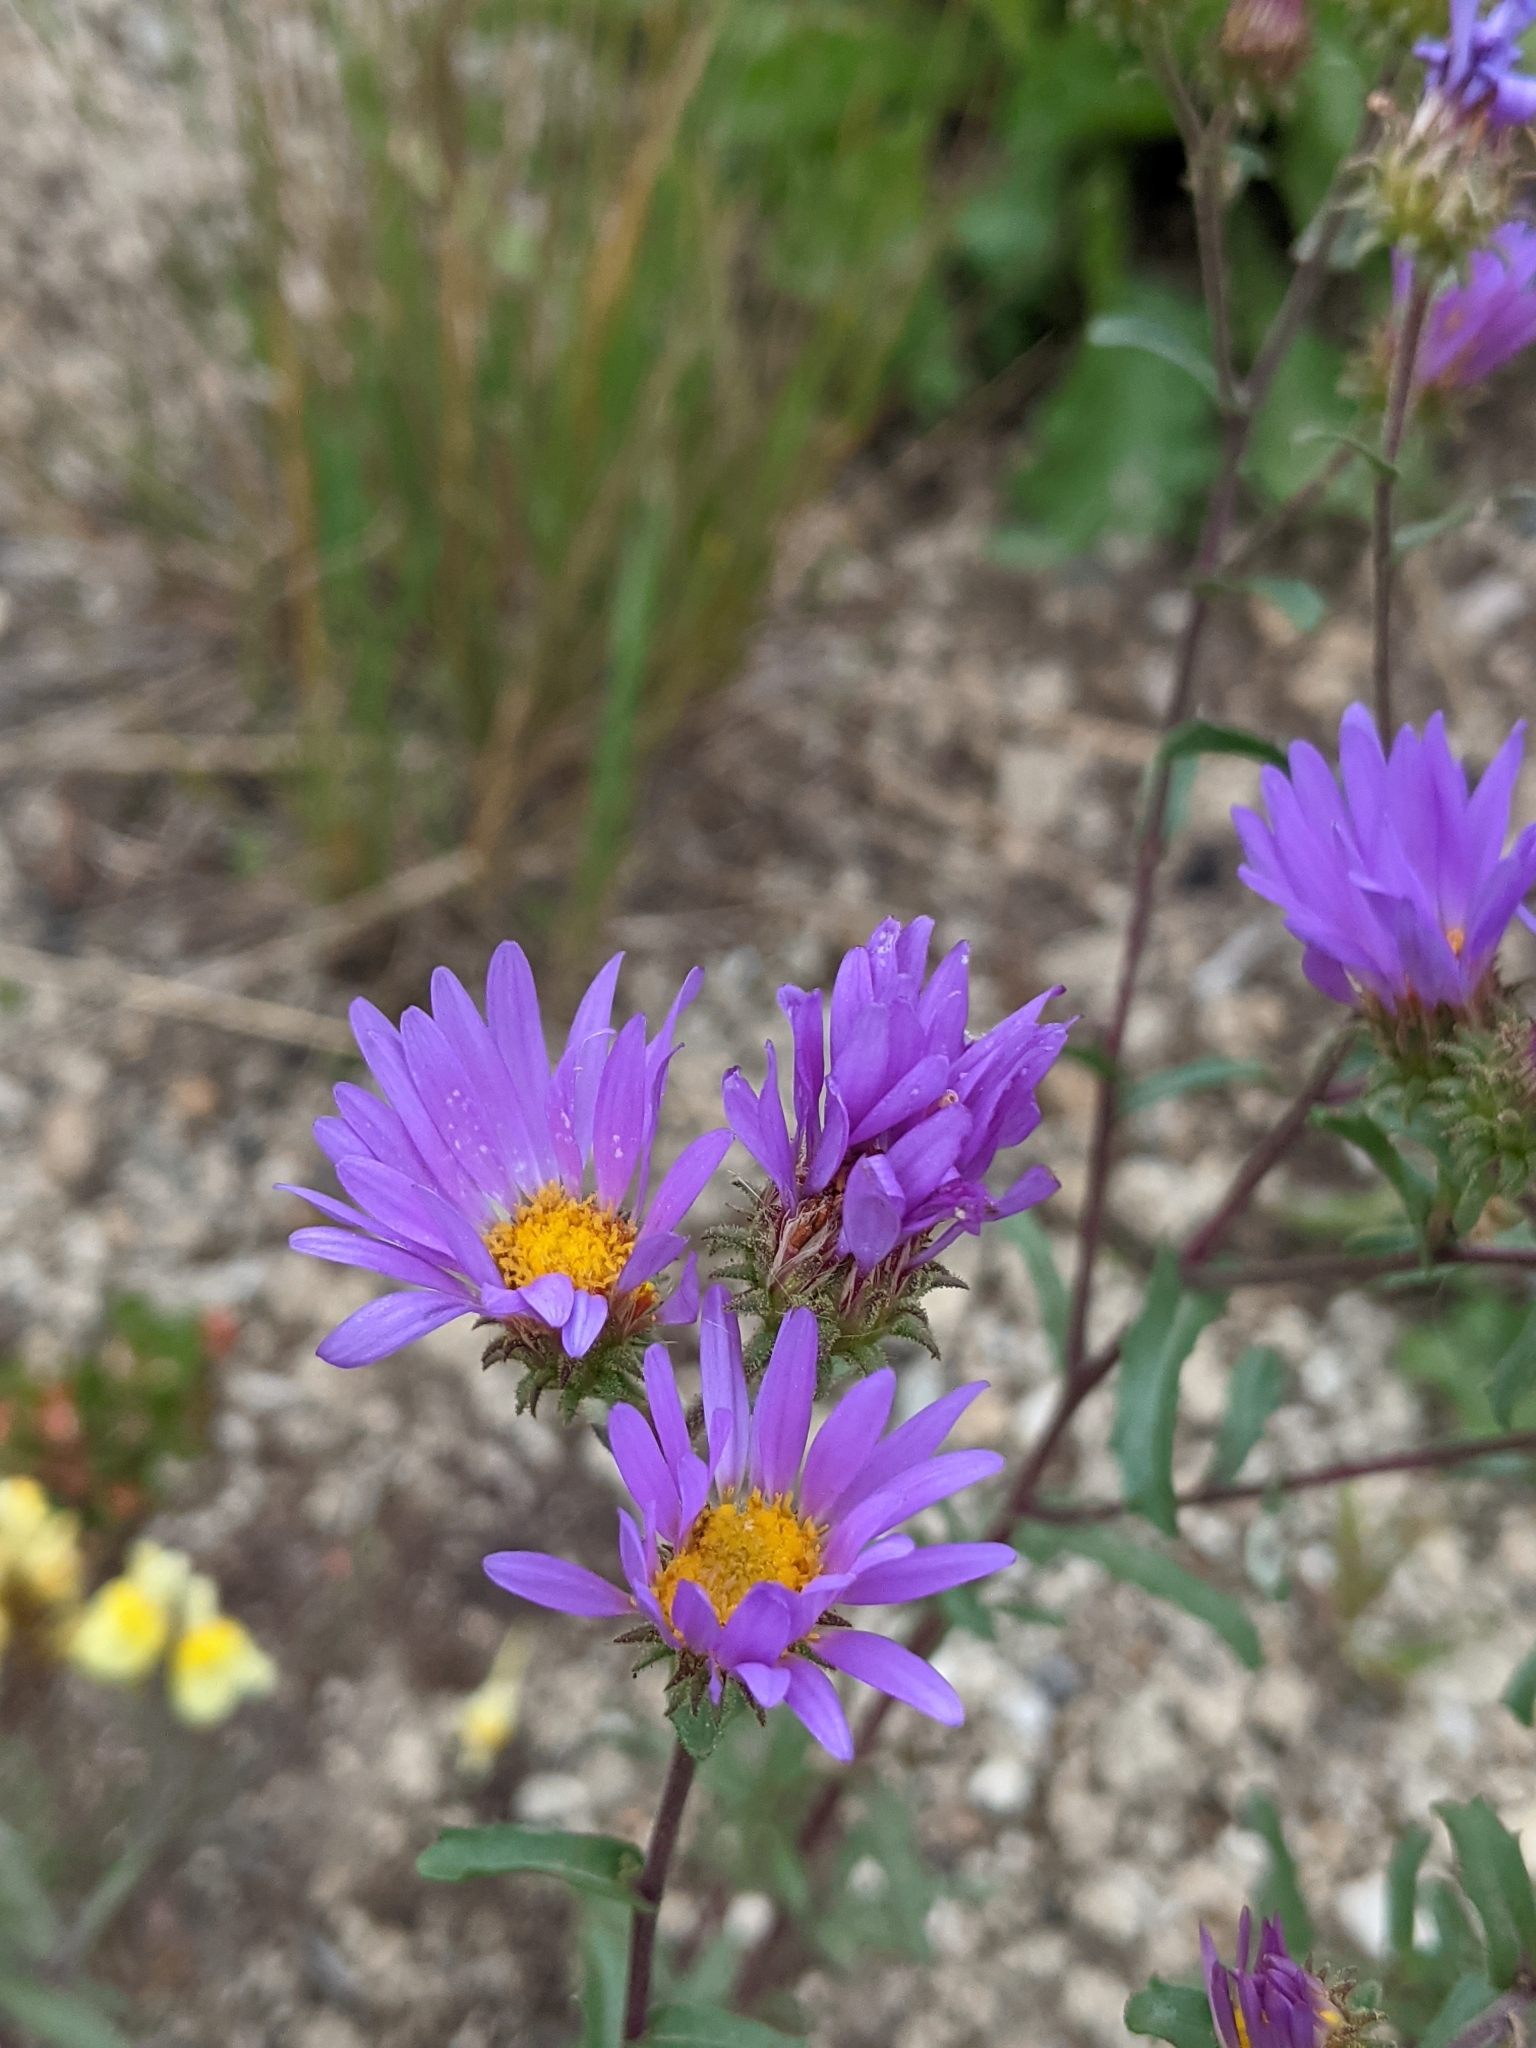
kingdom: Plantae
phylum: Tracheophyta
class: Magnoliopsida
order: Asterales
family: Asteraceae
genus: Dieteria
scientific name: Dieteria canescens
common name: Hoary-aster
